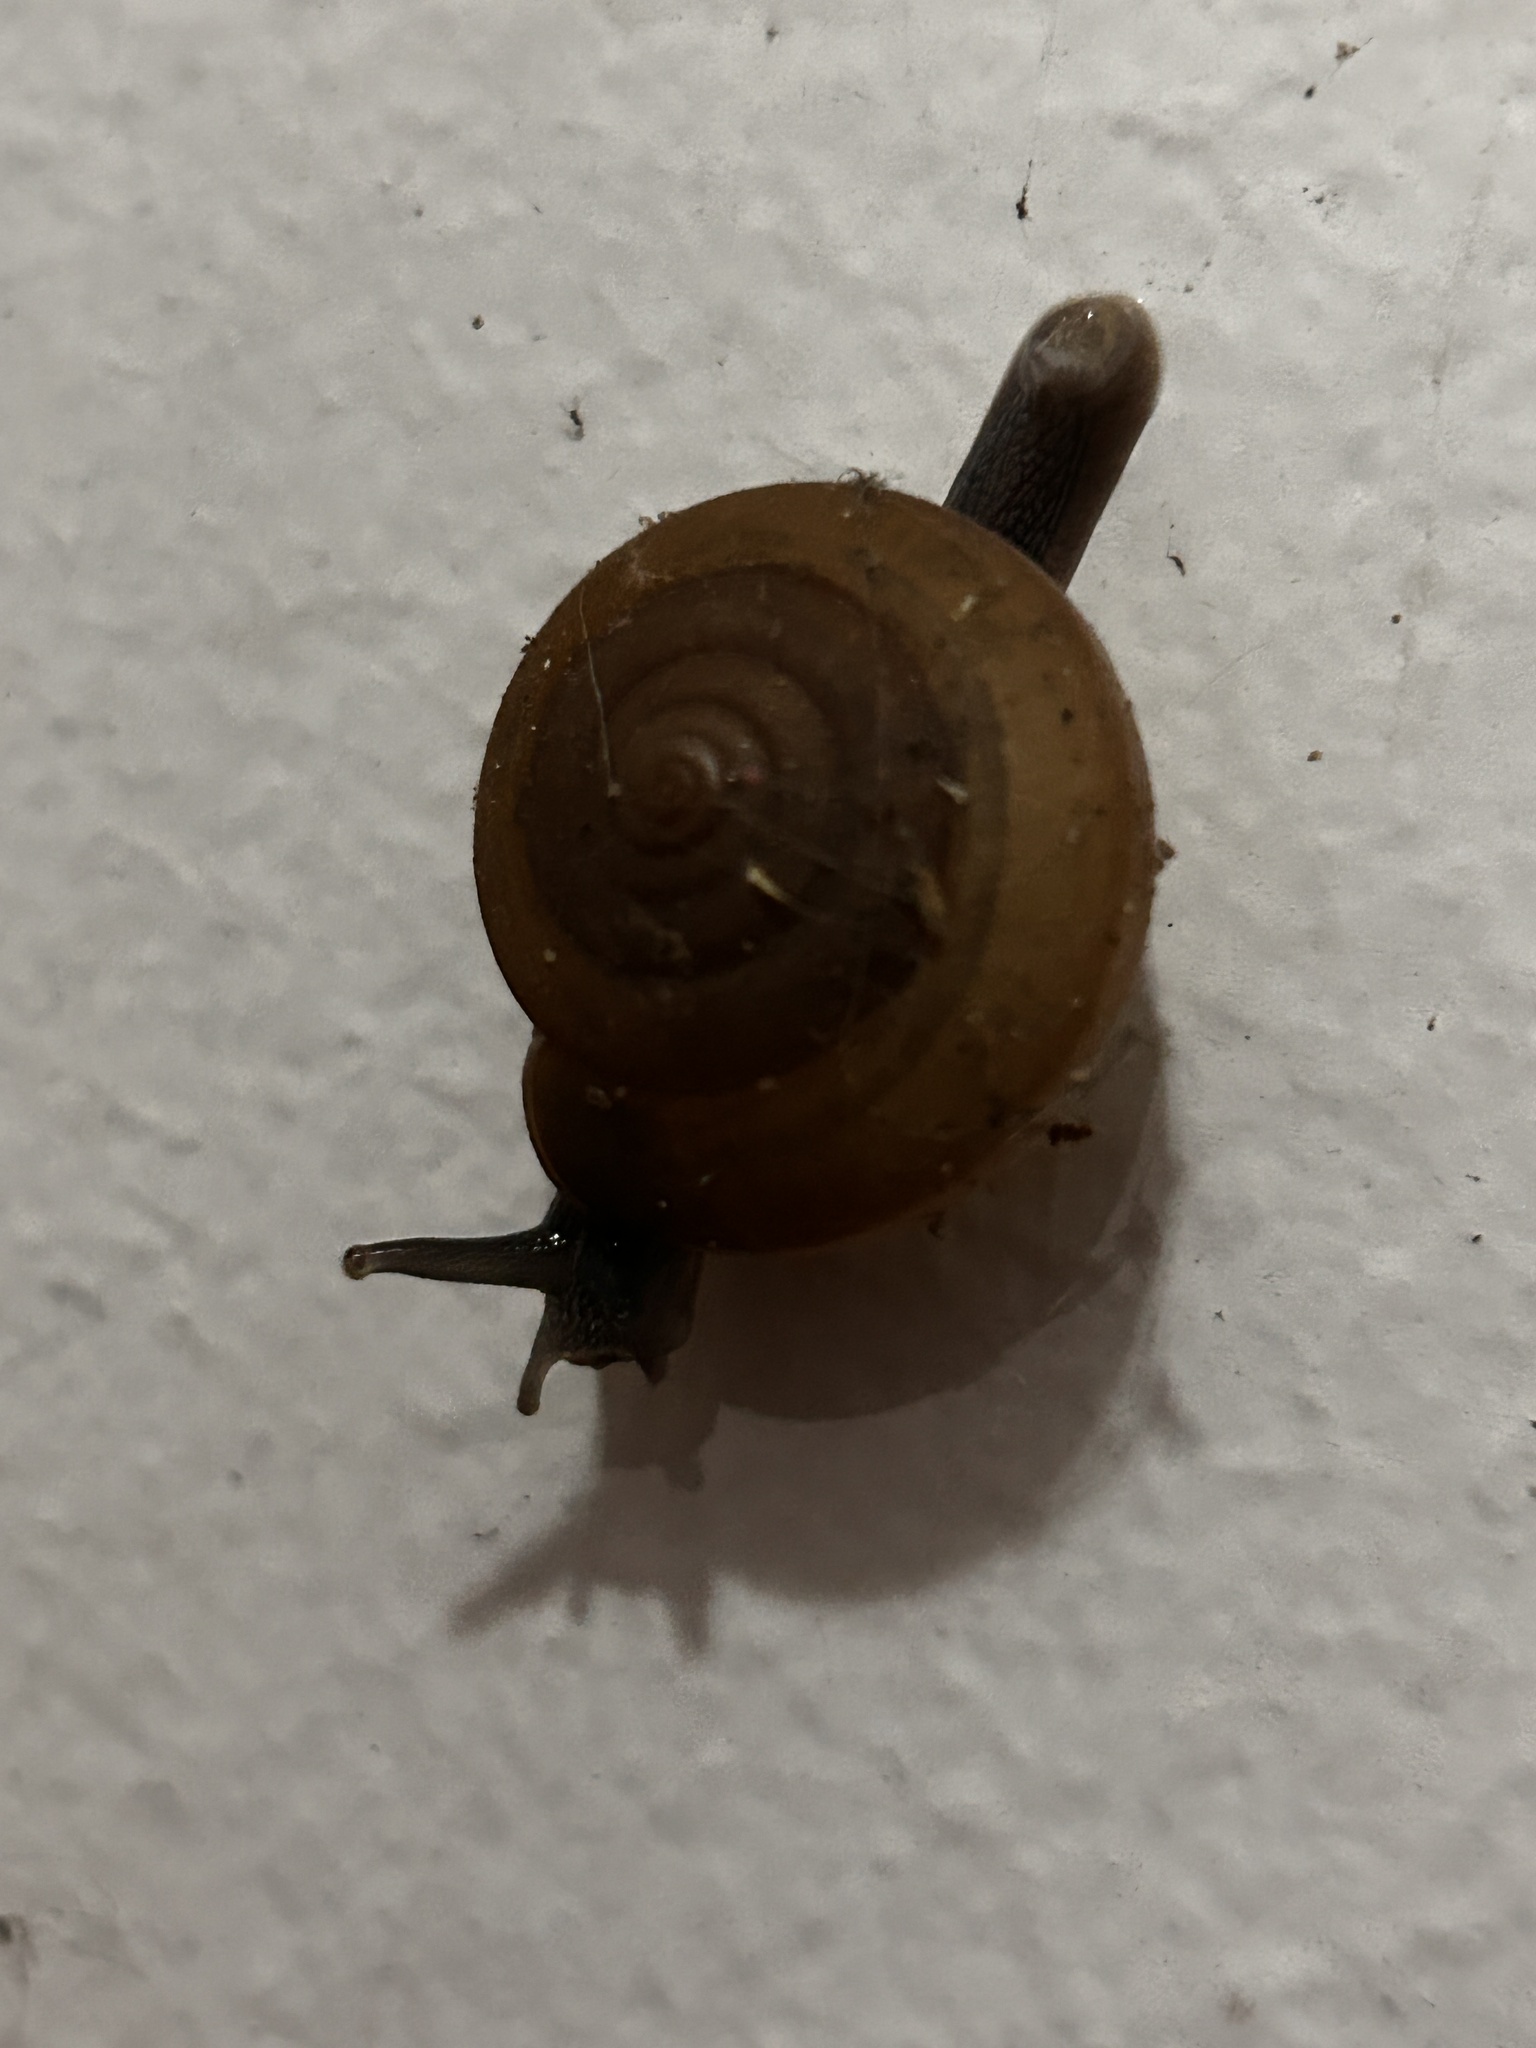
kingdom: Animalia
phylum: Mollusca
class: Gastropoda
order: Stylommatophora
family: Ariophantidae
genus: Sarika
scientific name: Sarika siamensis
